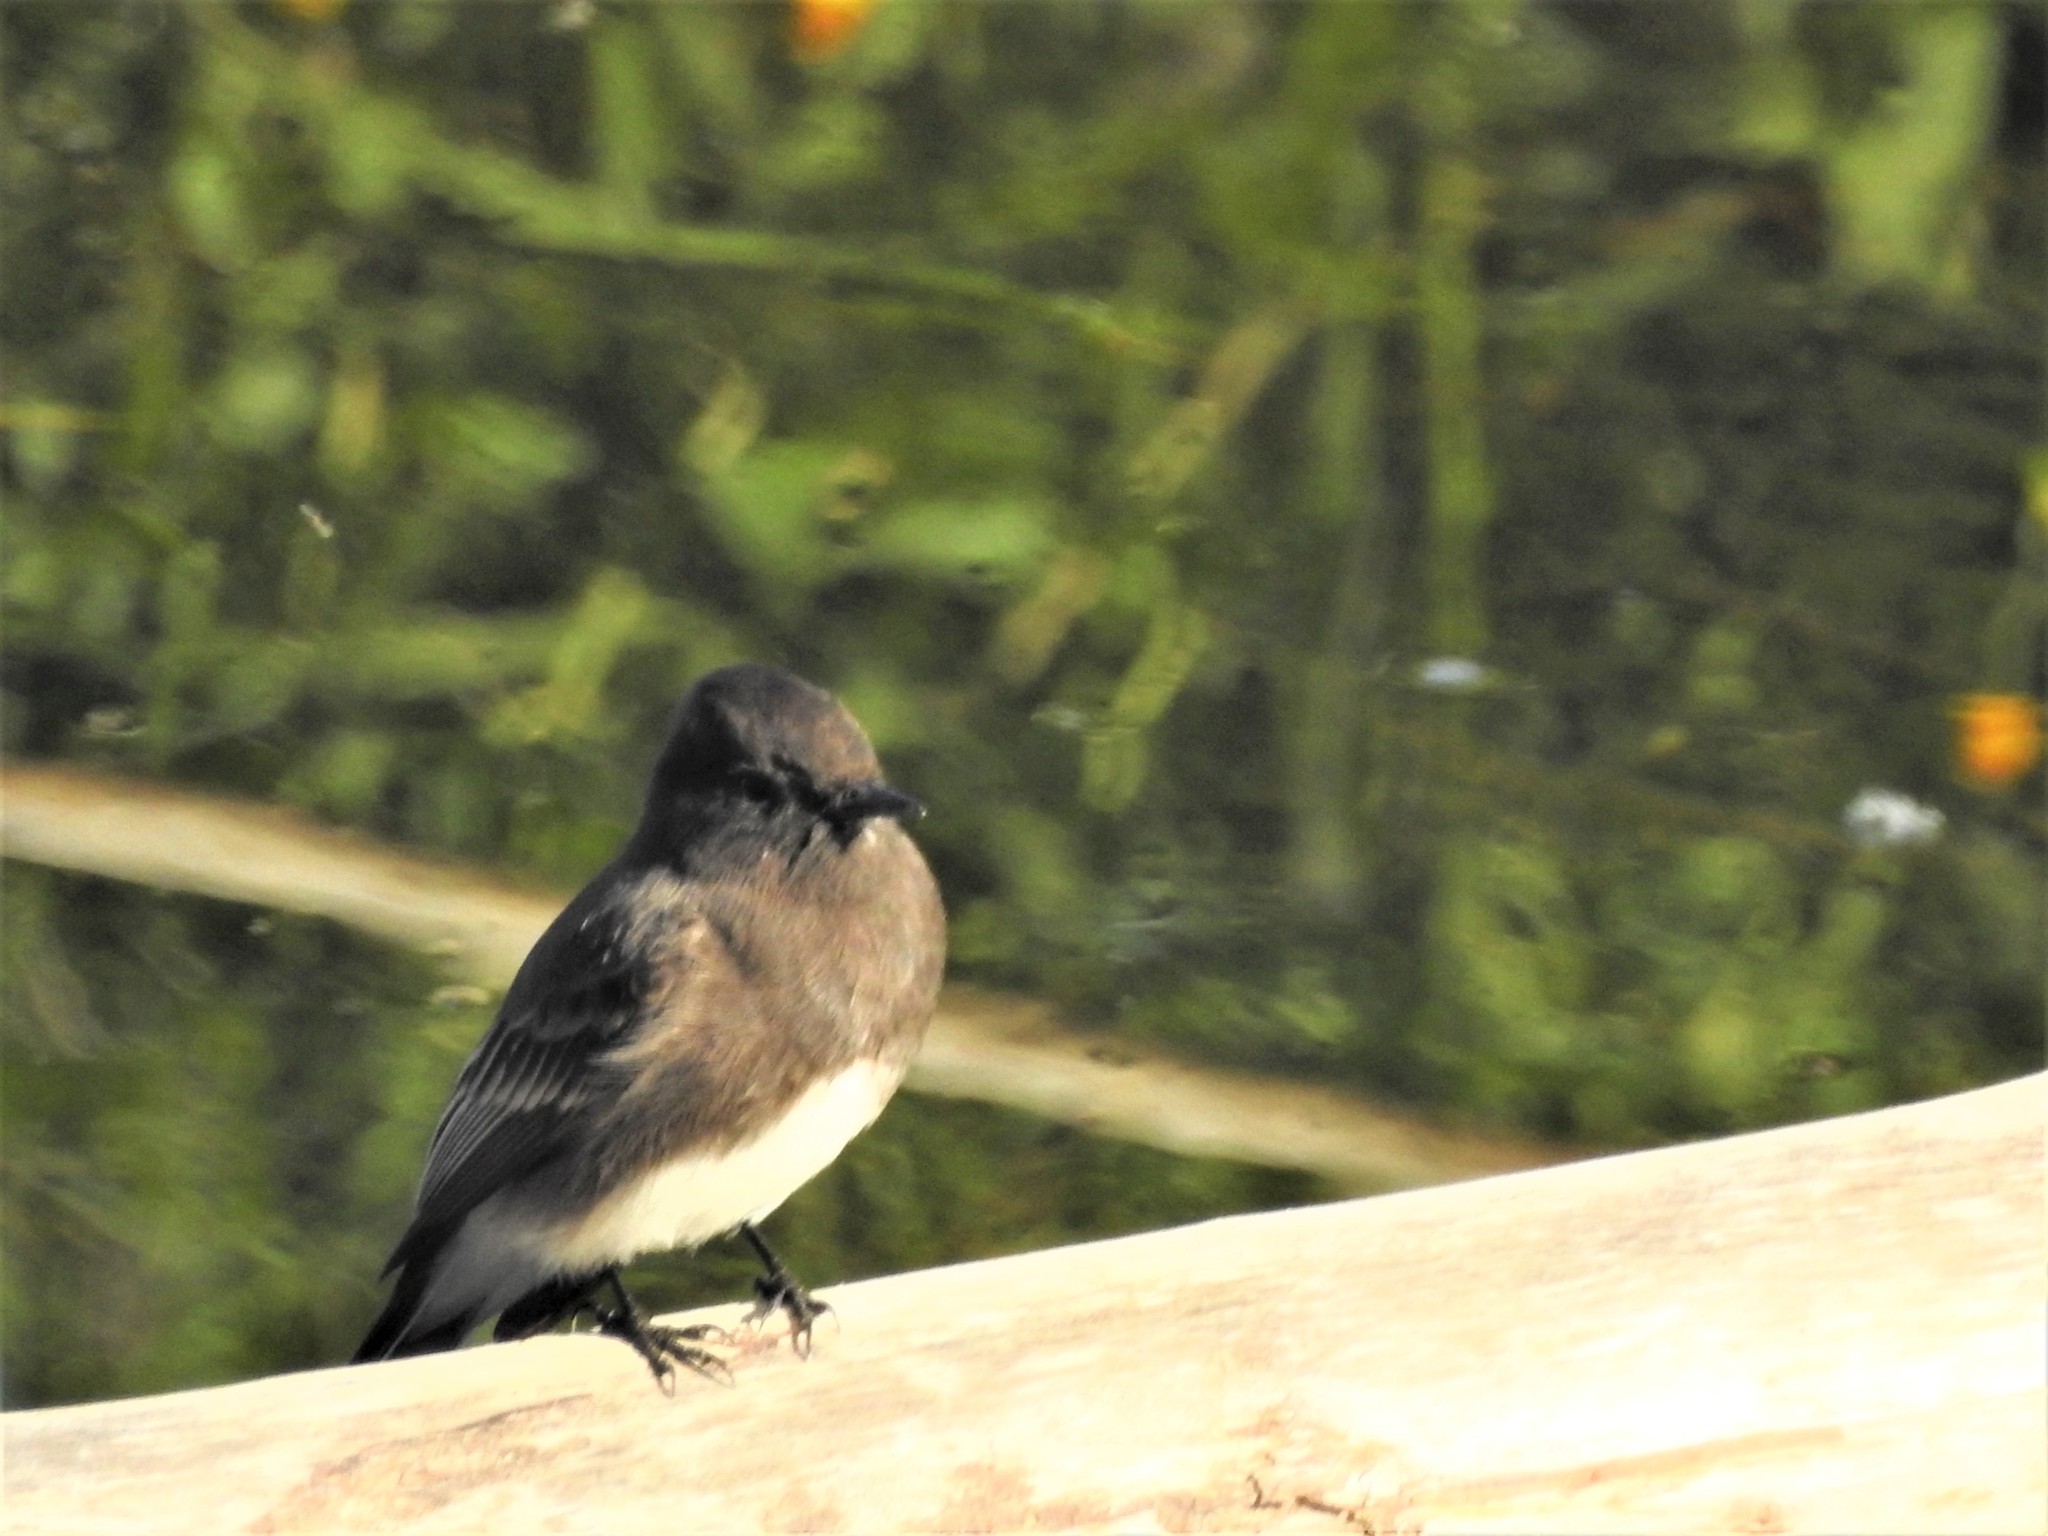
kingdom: Animalia
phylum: Chordata
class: Aves
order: Passeriformes
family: Tyrannidae
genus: Sayornis
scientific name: Sayornis nigricans
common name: Black phoebe
